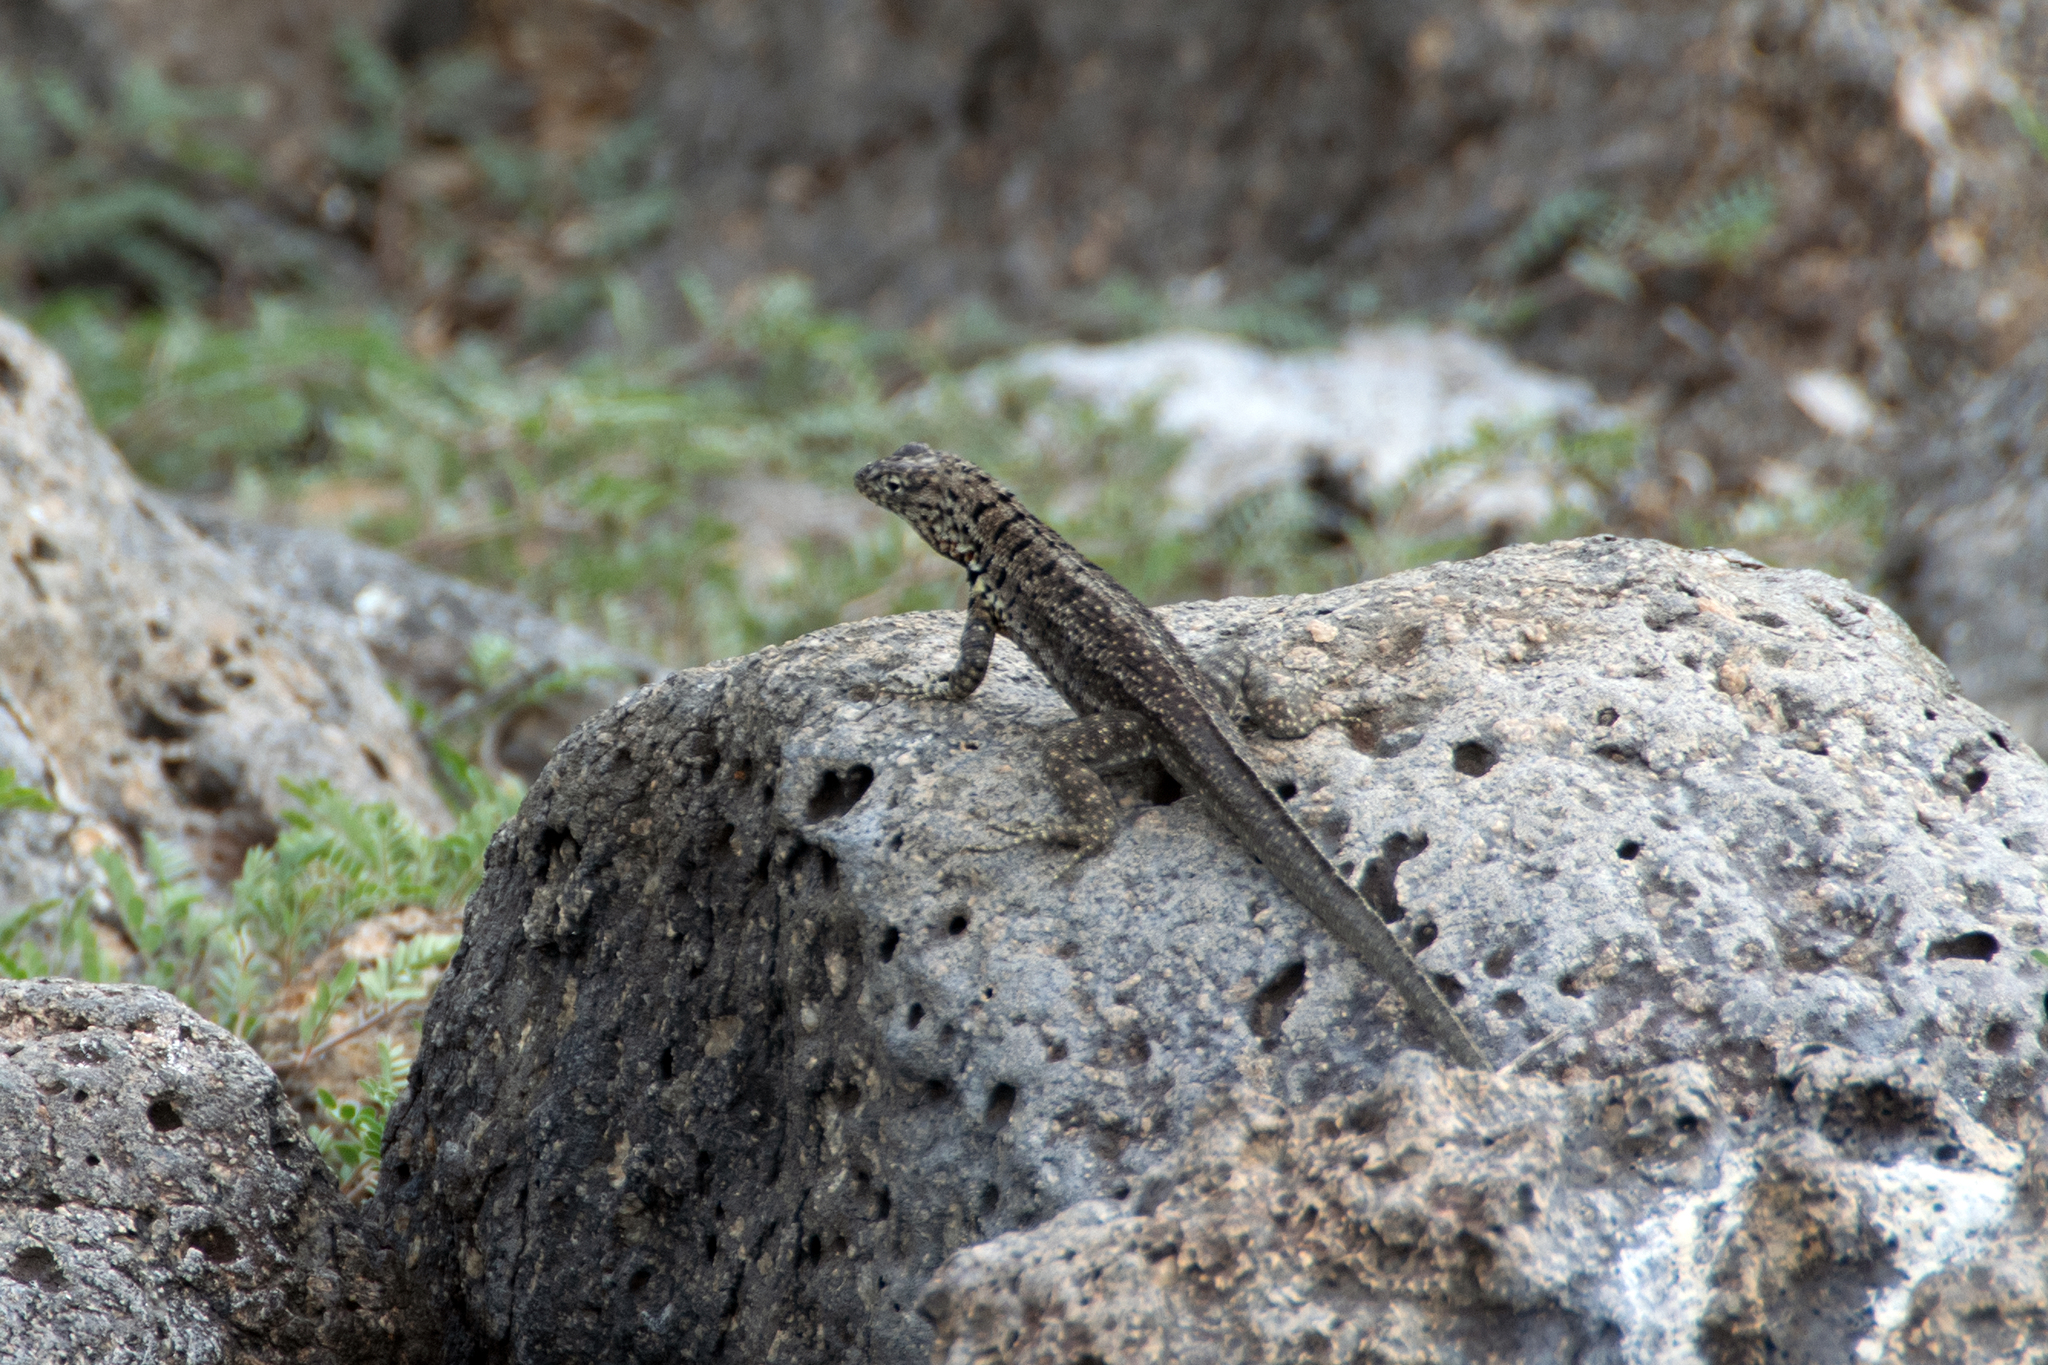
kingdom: Animalia
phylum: Chordata
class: Squamata
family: Tropiduridae
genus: Microlophus
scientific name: Microlophus indefatigabilis
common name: Galapagos lava lizard
